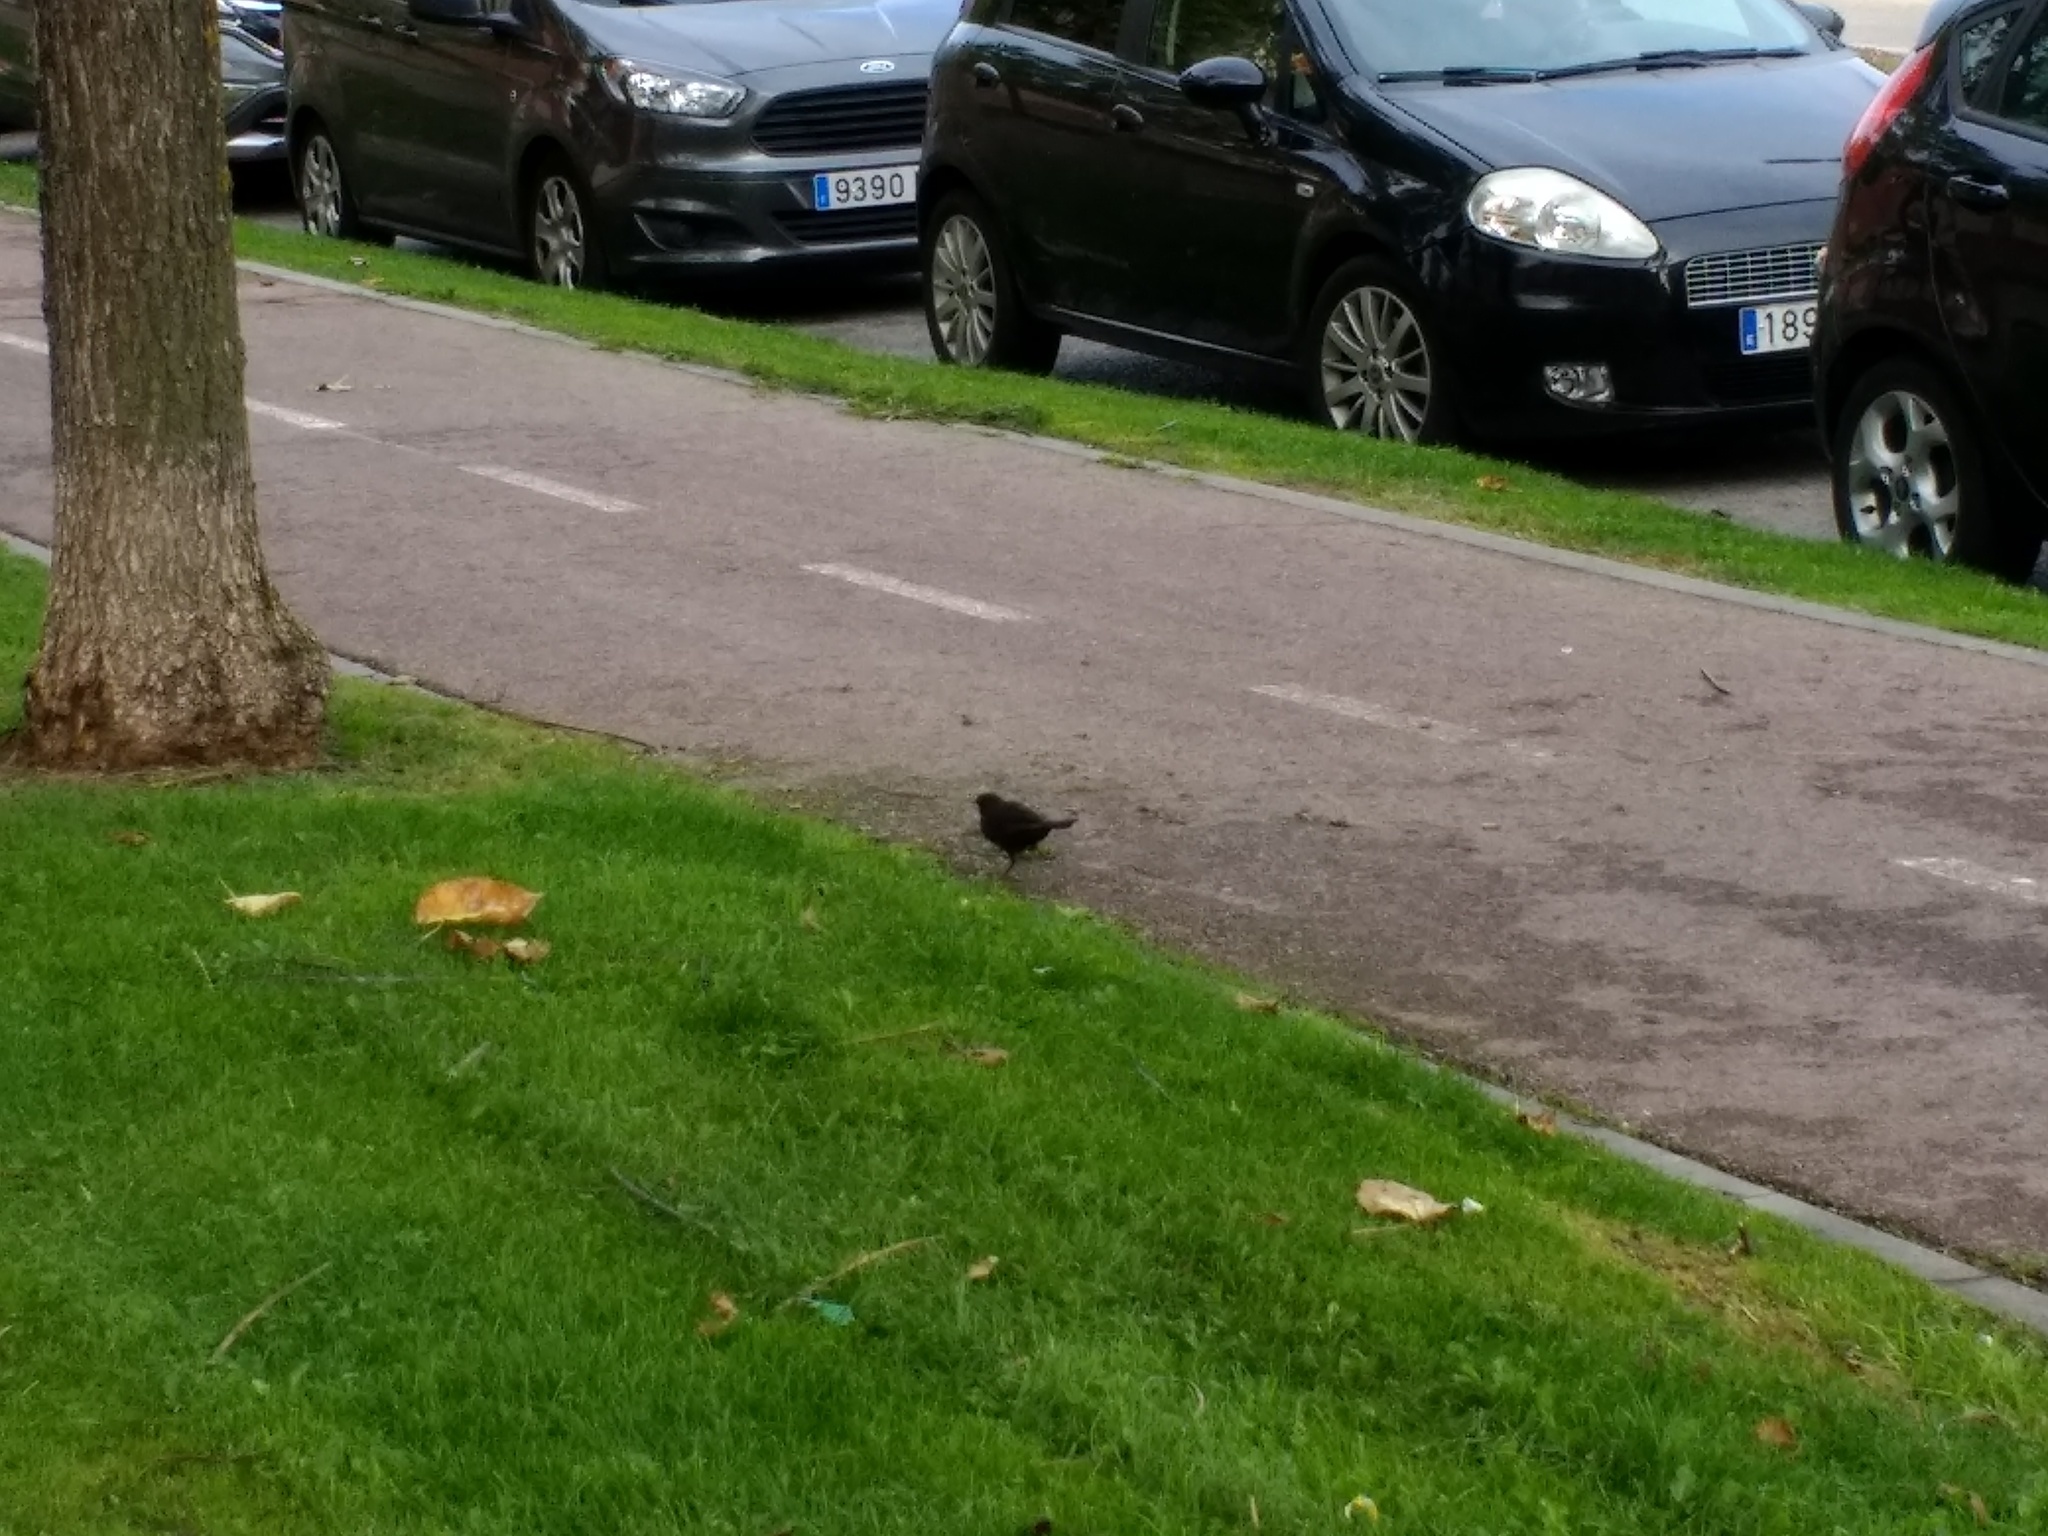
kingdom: Animalia
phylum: Chordata
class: Aves
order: Passeriformes
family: Turdidae
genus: Turdus
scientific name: Turdus merula
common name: Common blackbird
